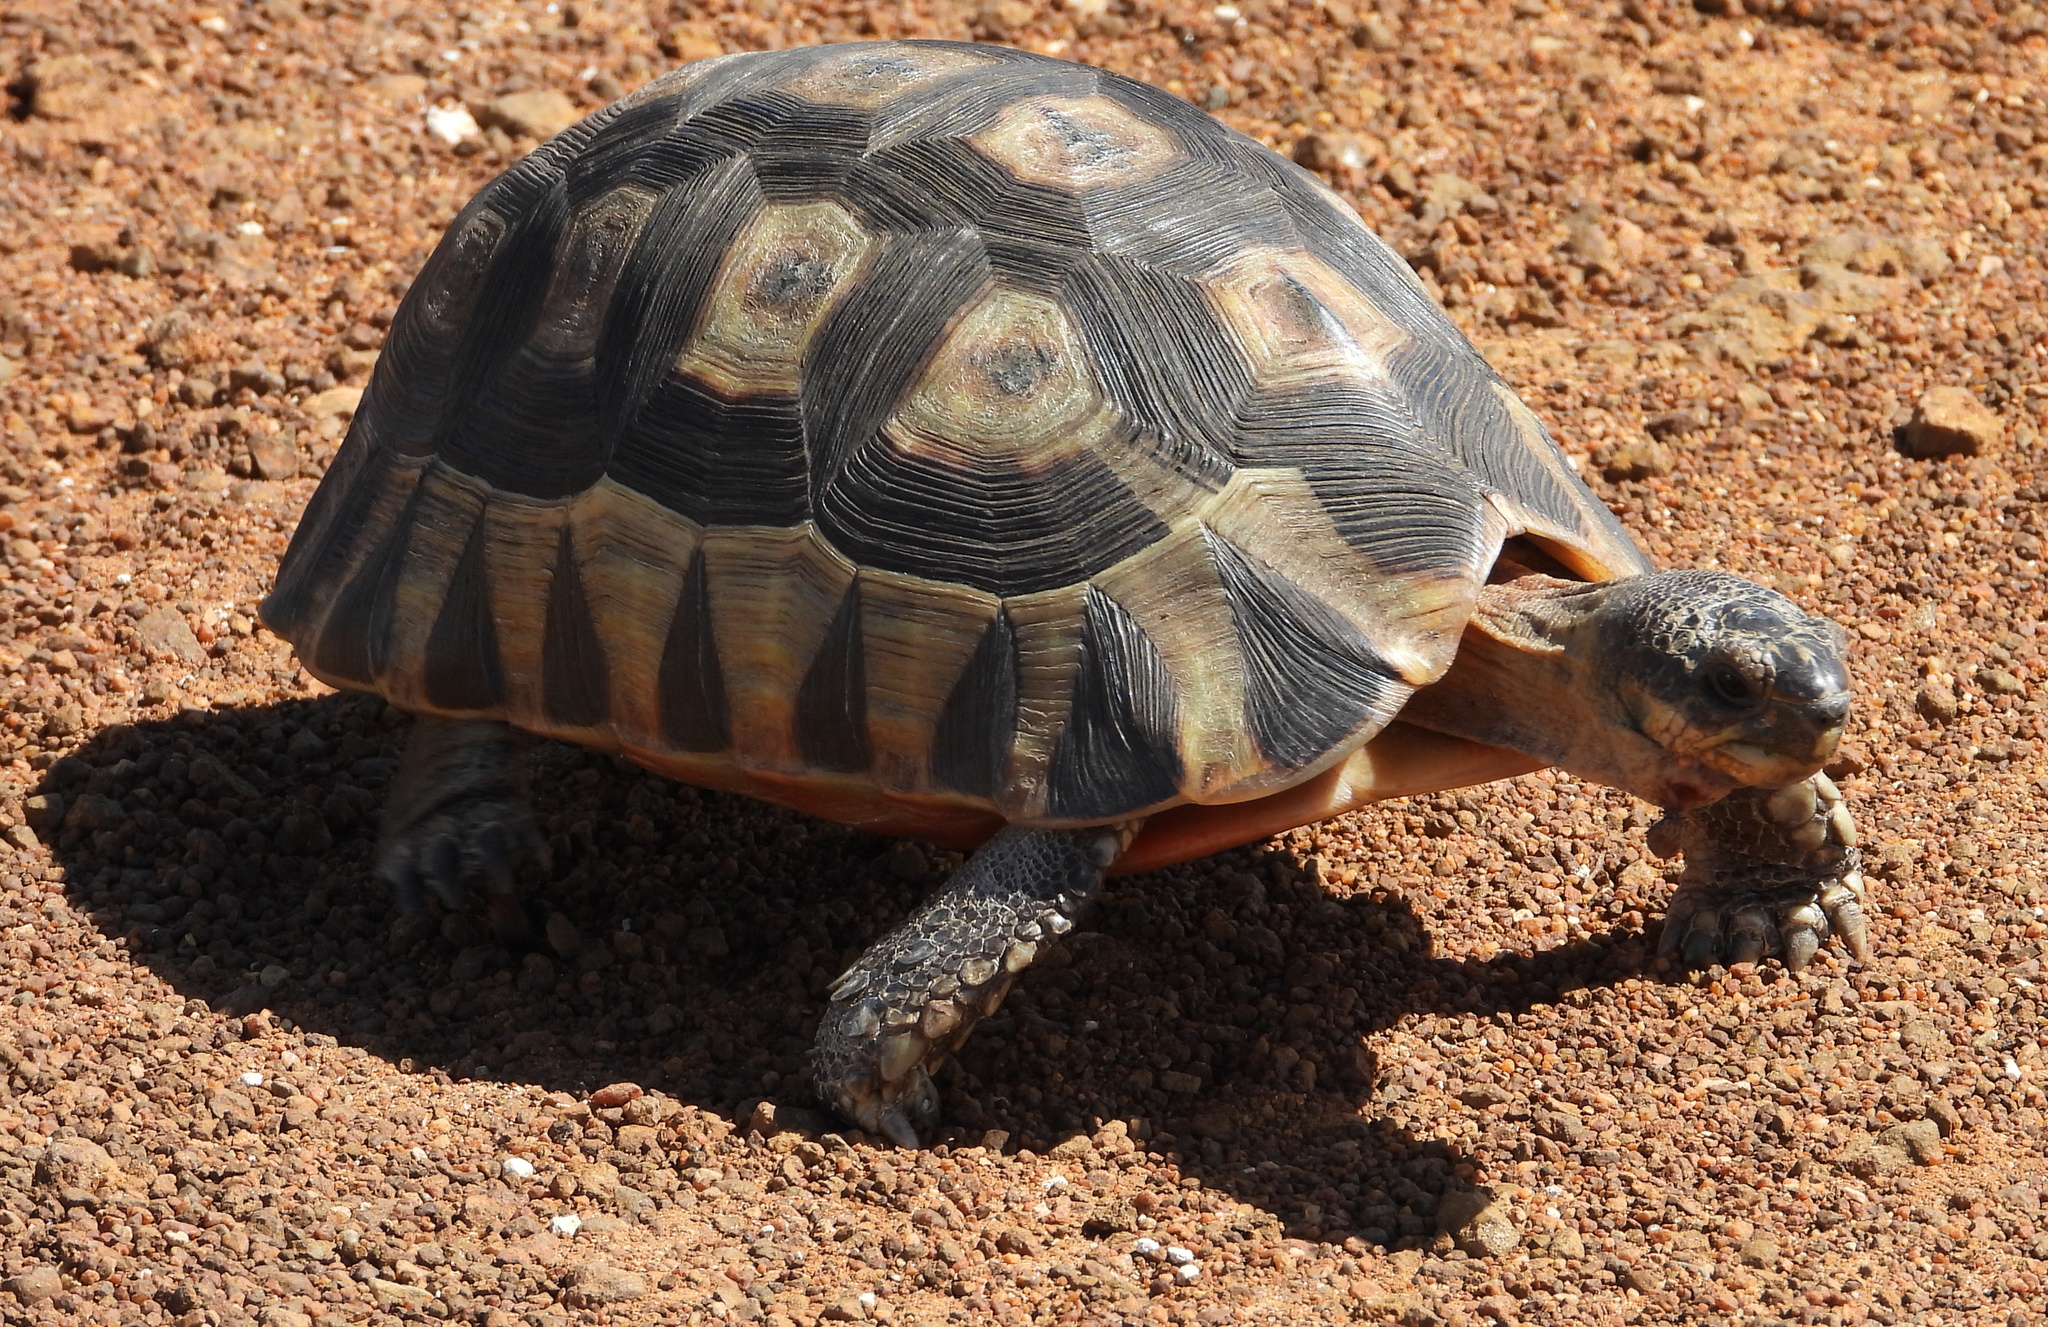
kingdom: Animalia
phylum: Chordata
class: Testudines
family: Testudinidae
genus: Chersina
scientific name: Chersina angulata
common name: South african bowsprit tortoise
